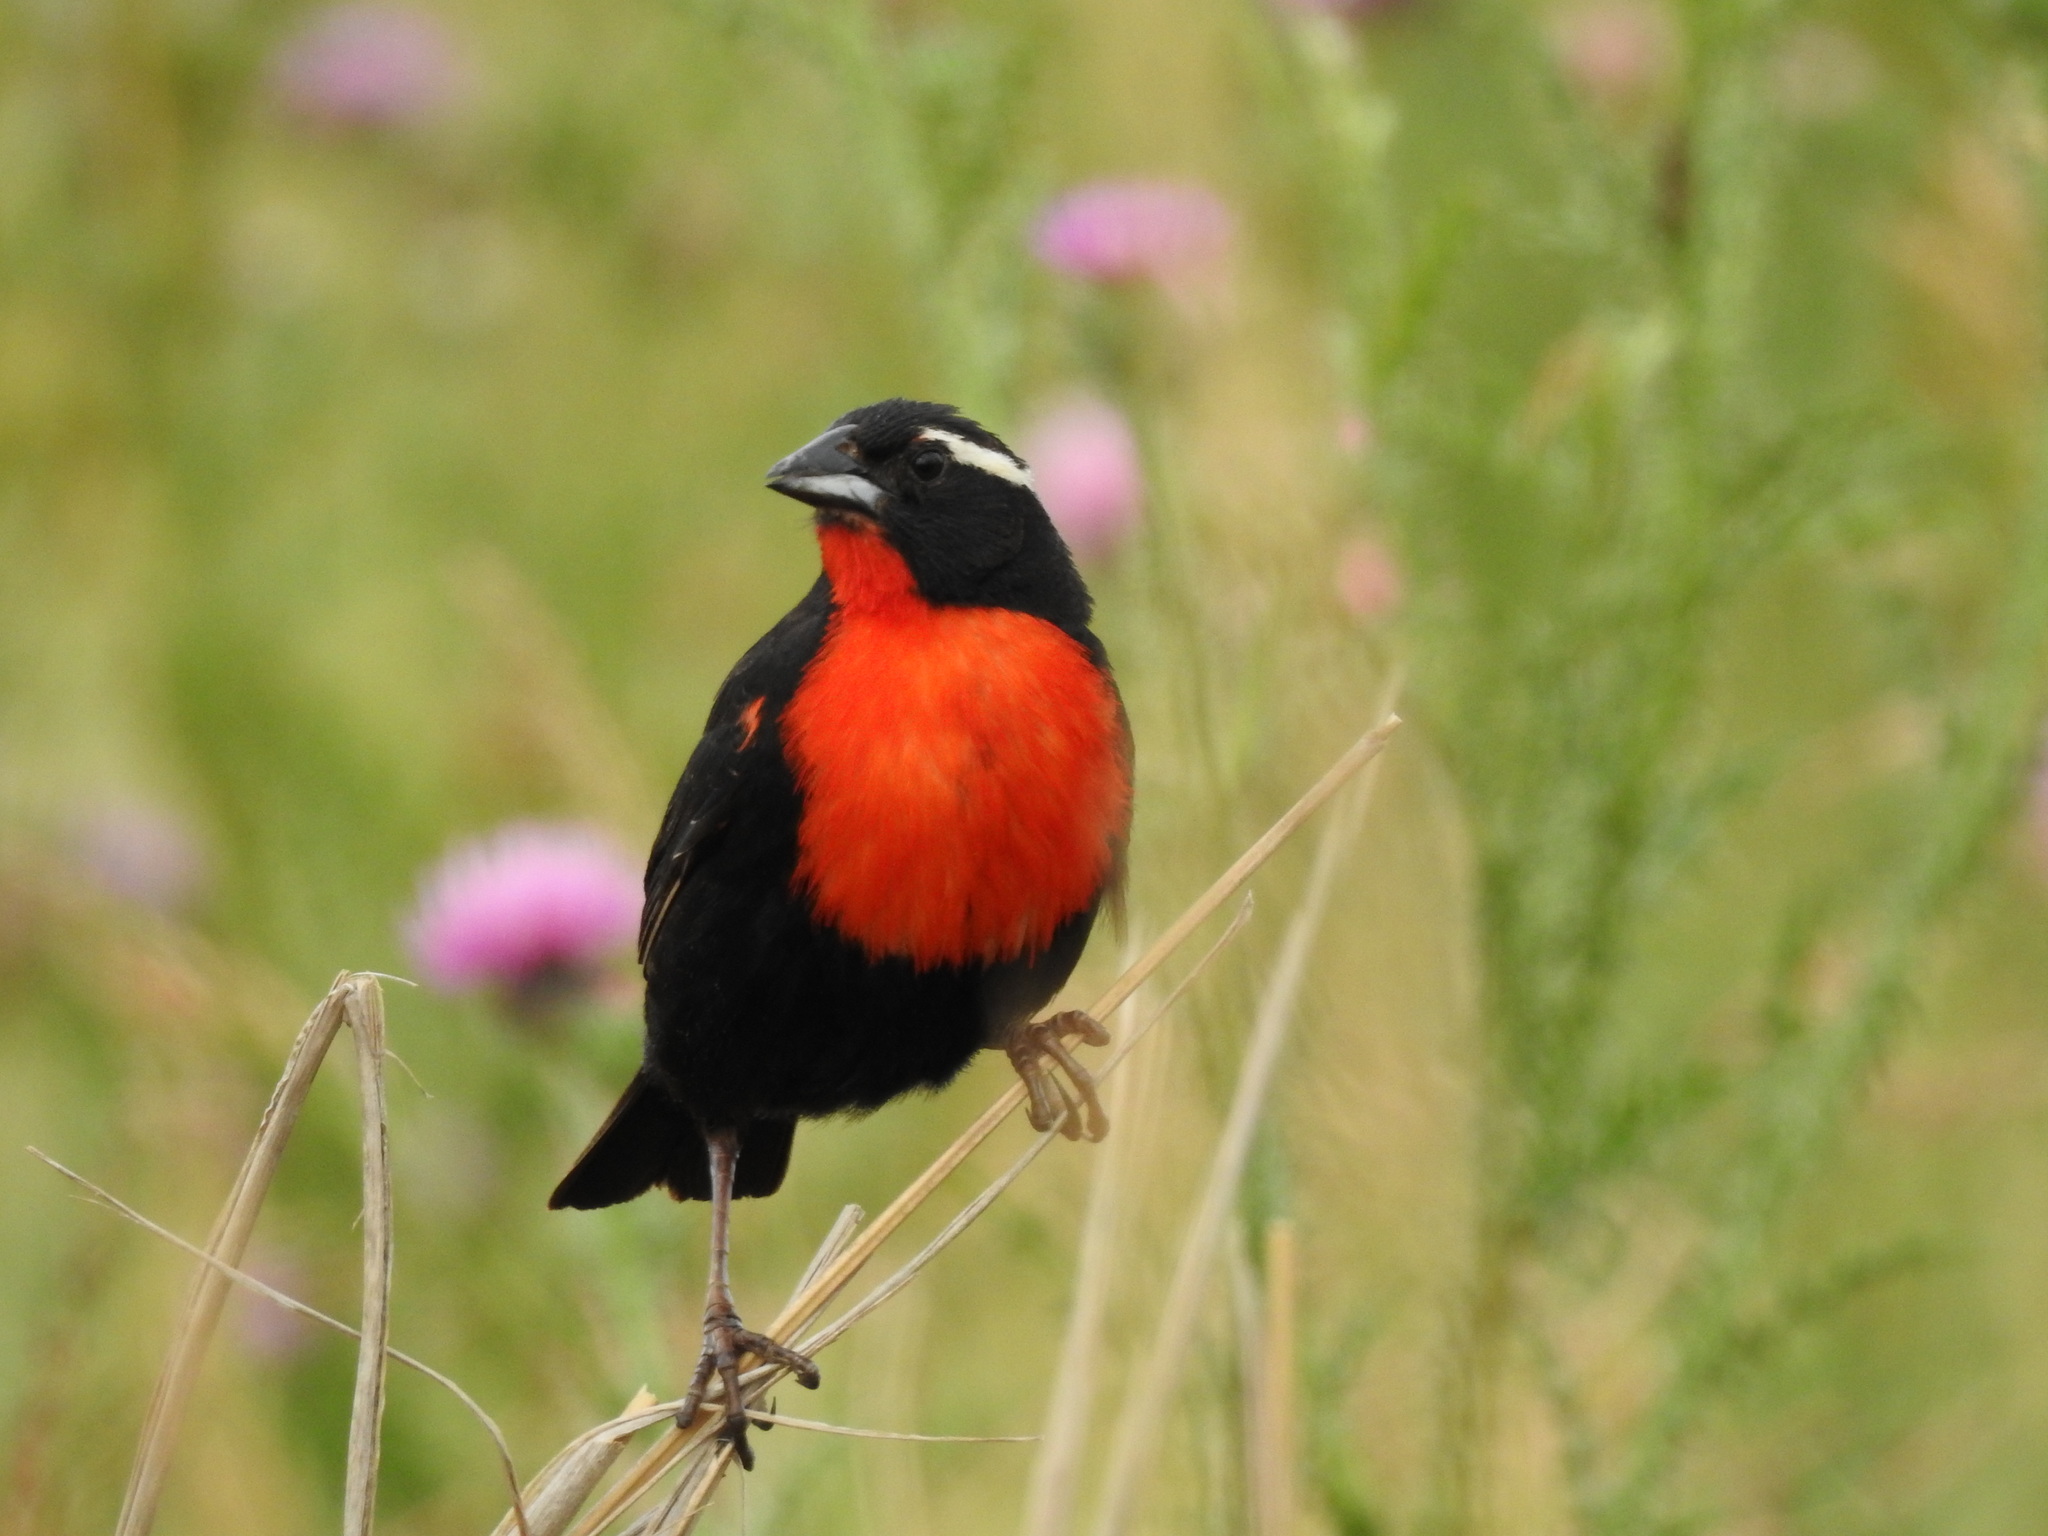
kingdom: Animalia
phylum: Chordata
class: Aves
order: Passeriformes
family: Icteridae
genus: Sturnella
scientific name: Sturnella superciliaris
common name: White-browed blackbird
